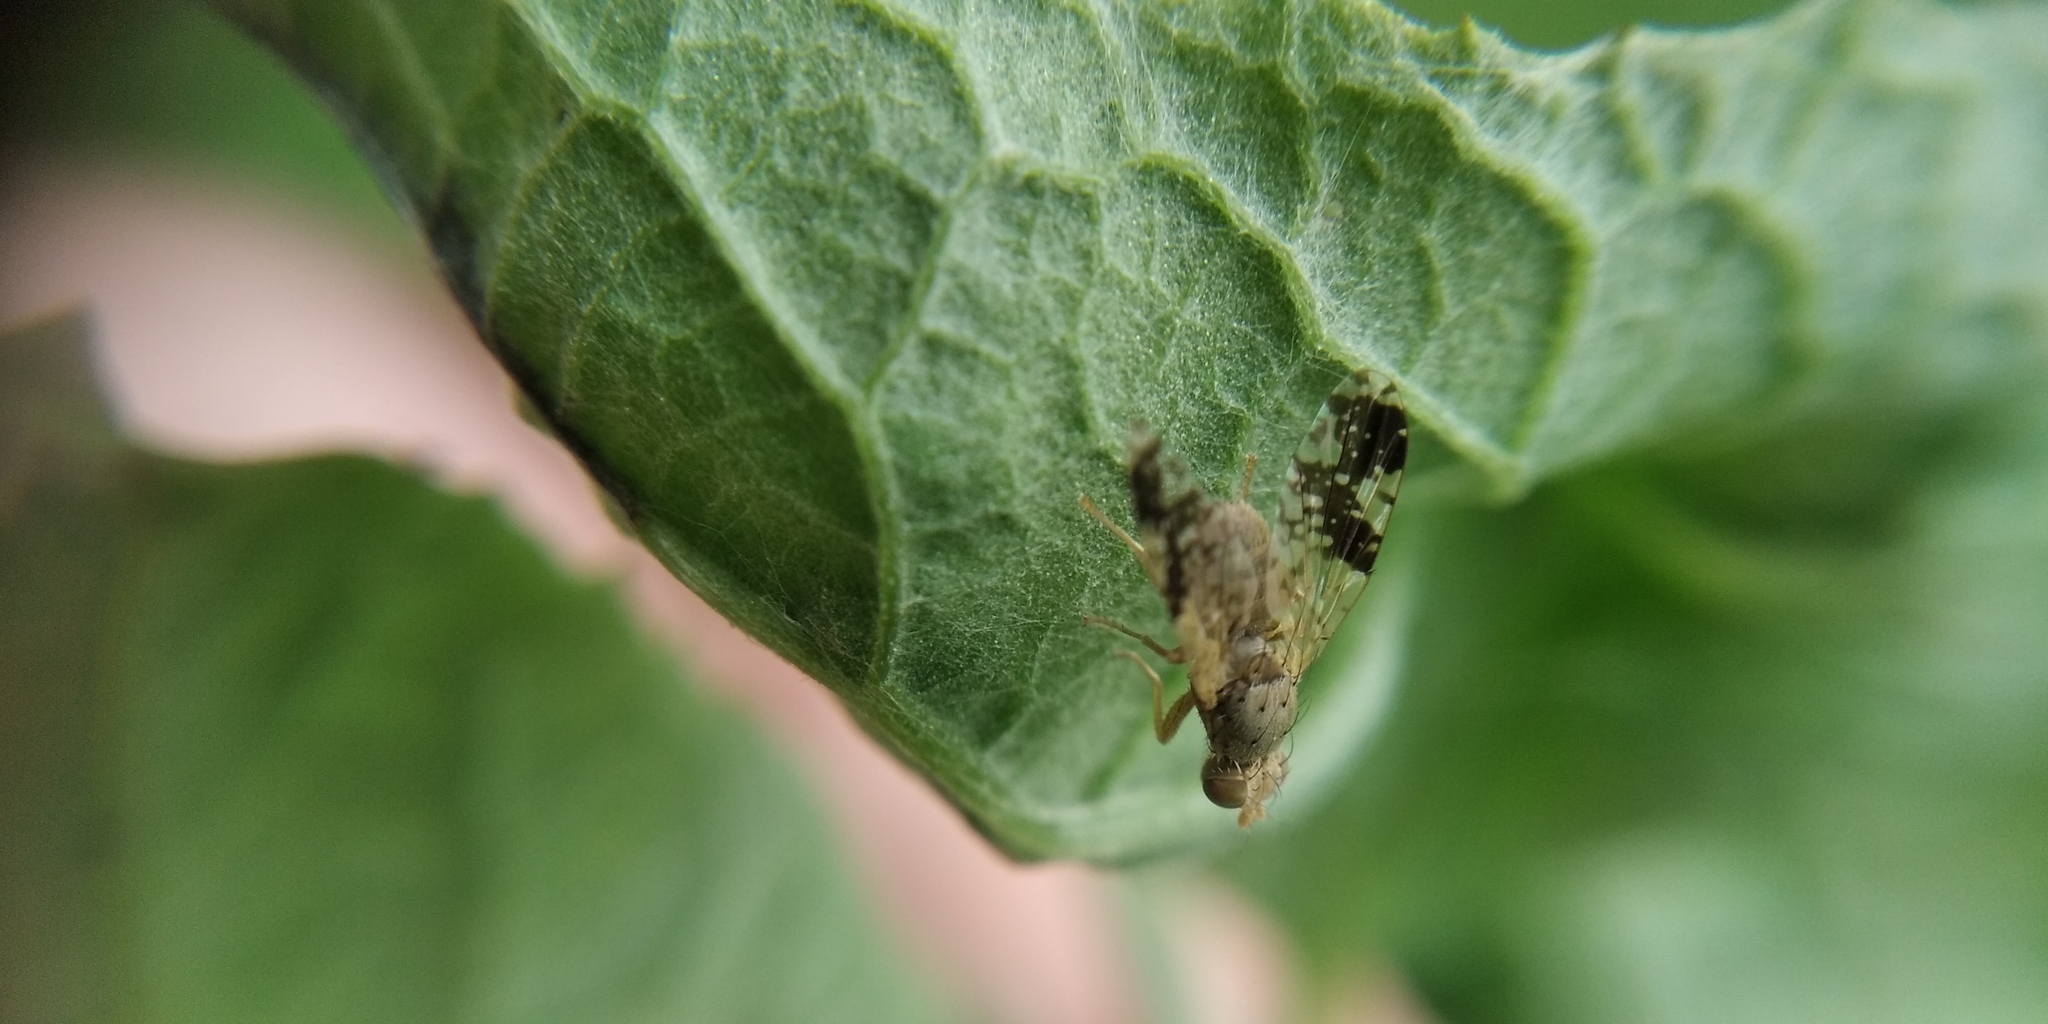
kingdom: Animalia
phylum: Arthropoda
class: Insecta
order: Diptera
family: Tephritidae
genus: Tephritis
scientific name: Tephritis bardanae
